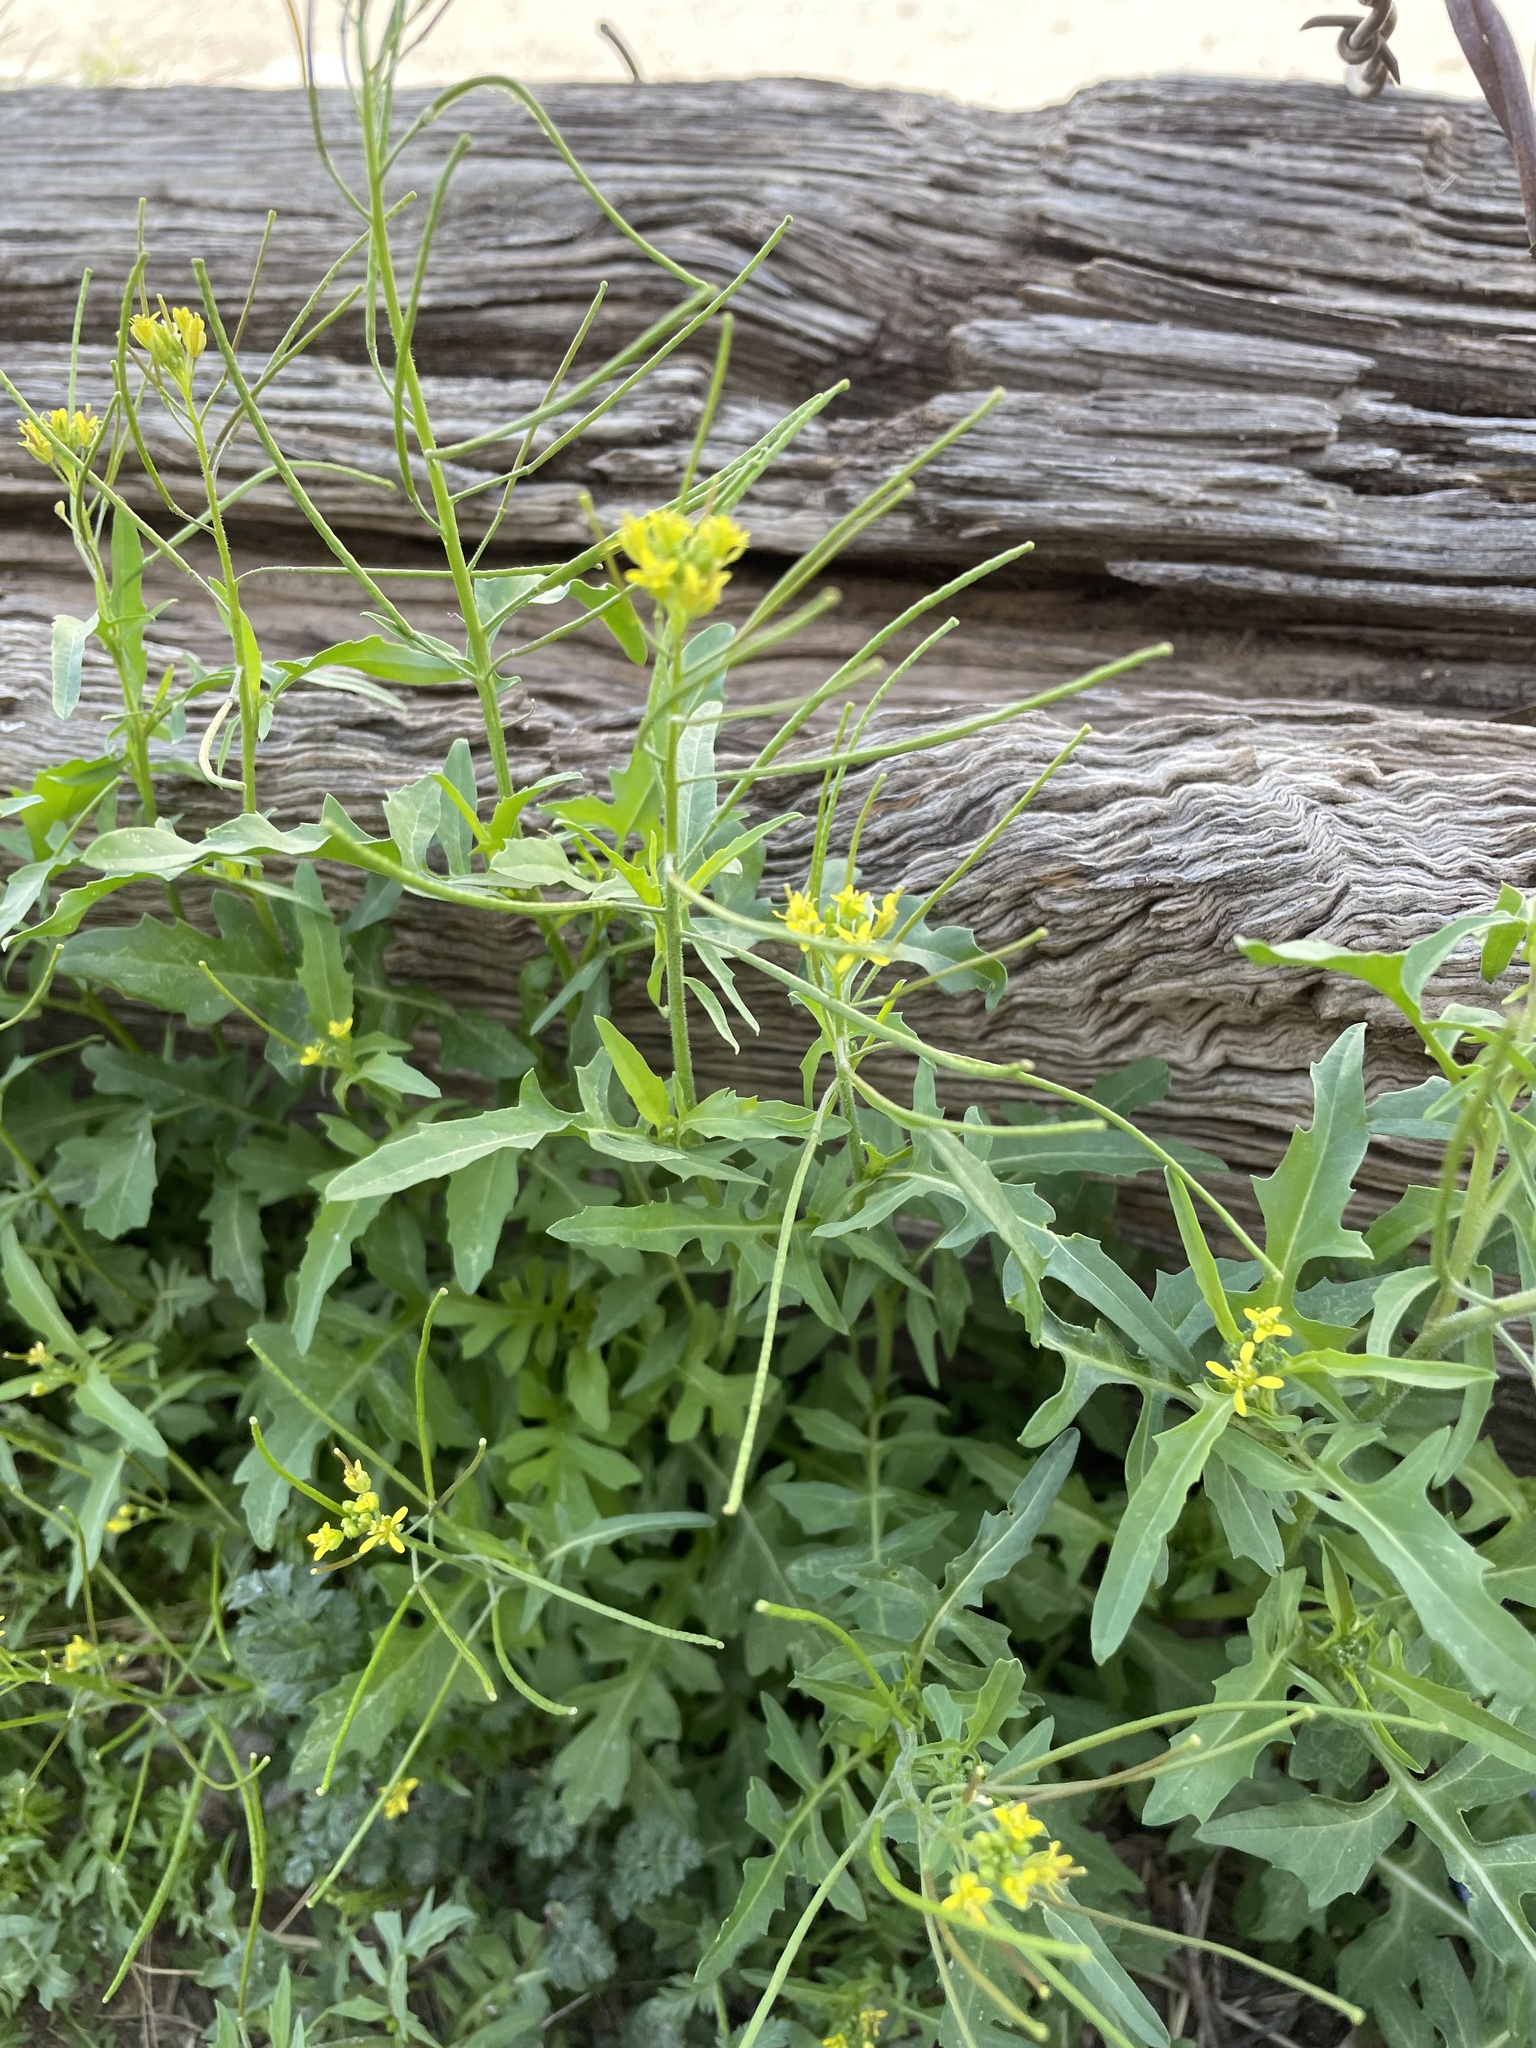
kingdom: Plantae
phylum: Tracheophyta
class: Magnoliopsida
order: Brassicales
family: Brassicaceae
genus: Sisymbrium
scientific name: Sisymbrium irio
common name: London rocket
